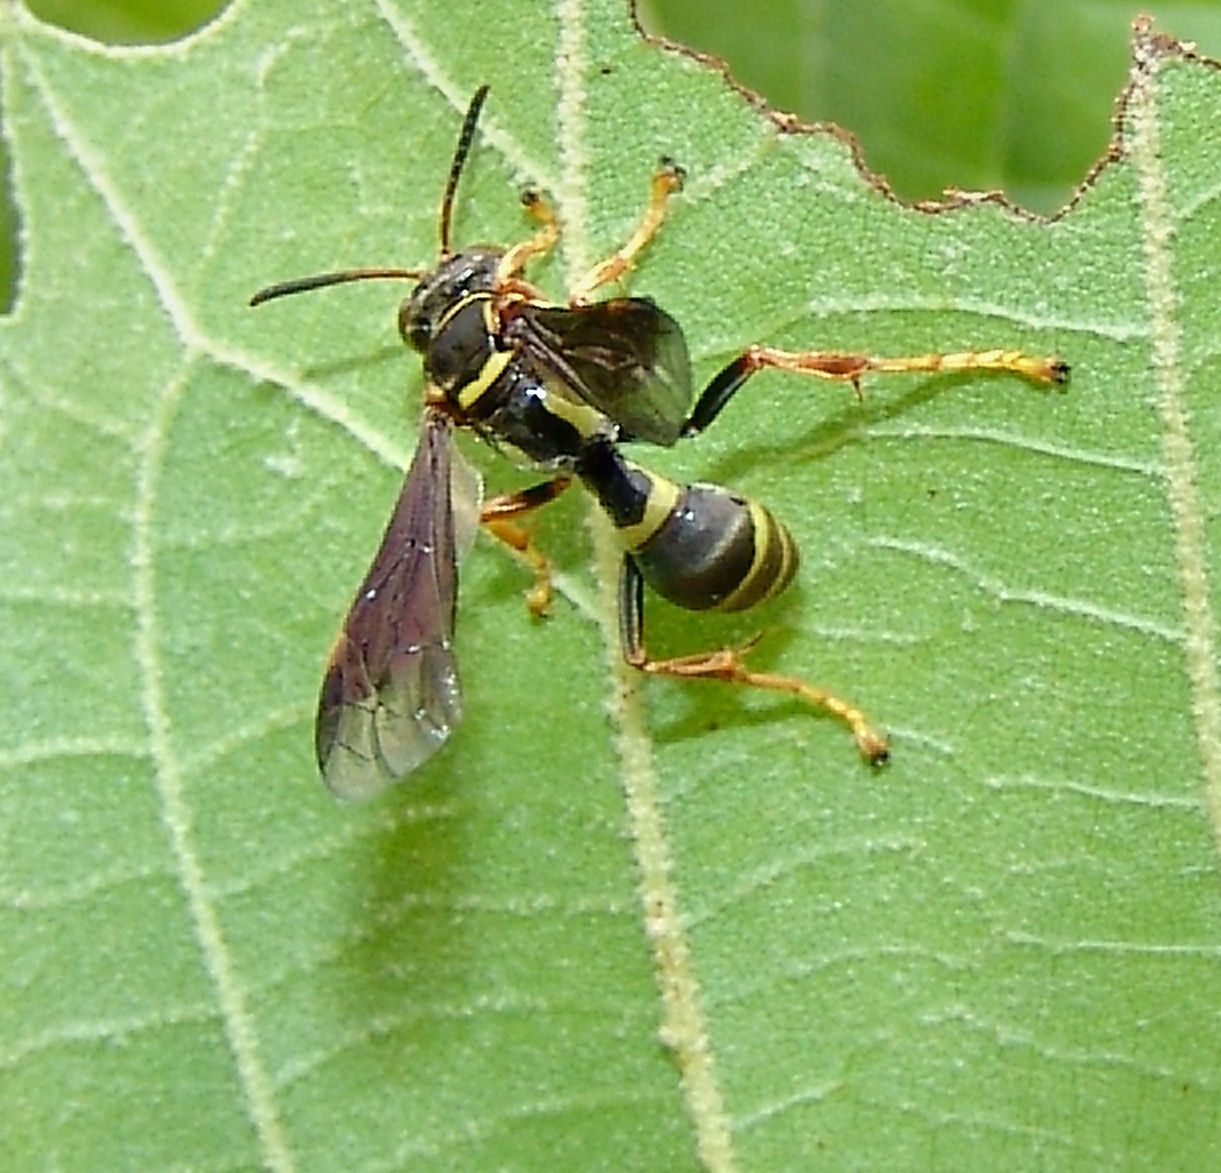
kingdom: Animalia
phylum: Arthropoda
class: Insecta
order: Hymenoptera
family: Crabronidae
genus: Saygorytes
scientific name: Saygorytes phaleratus
